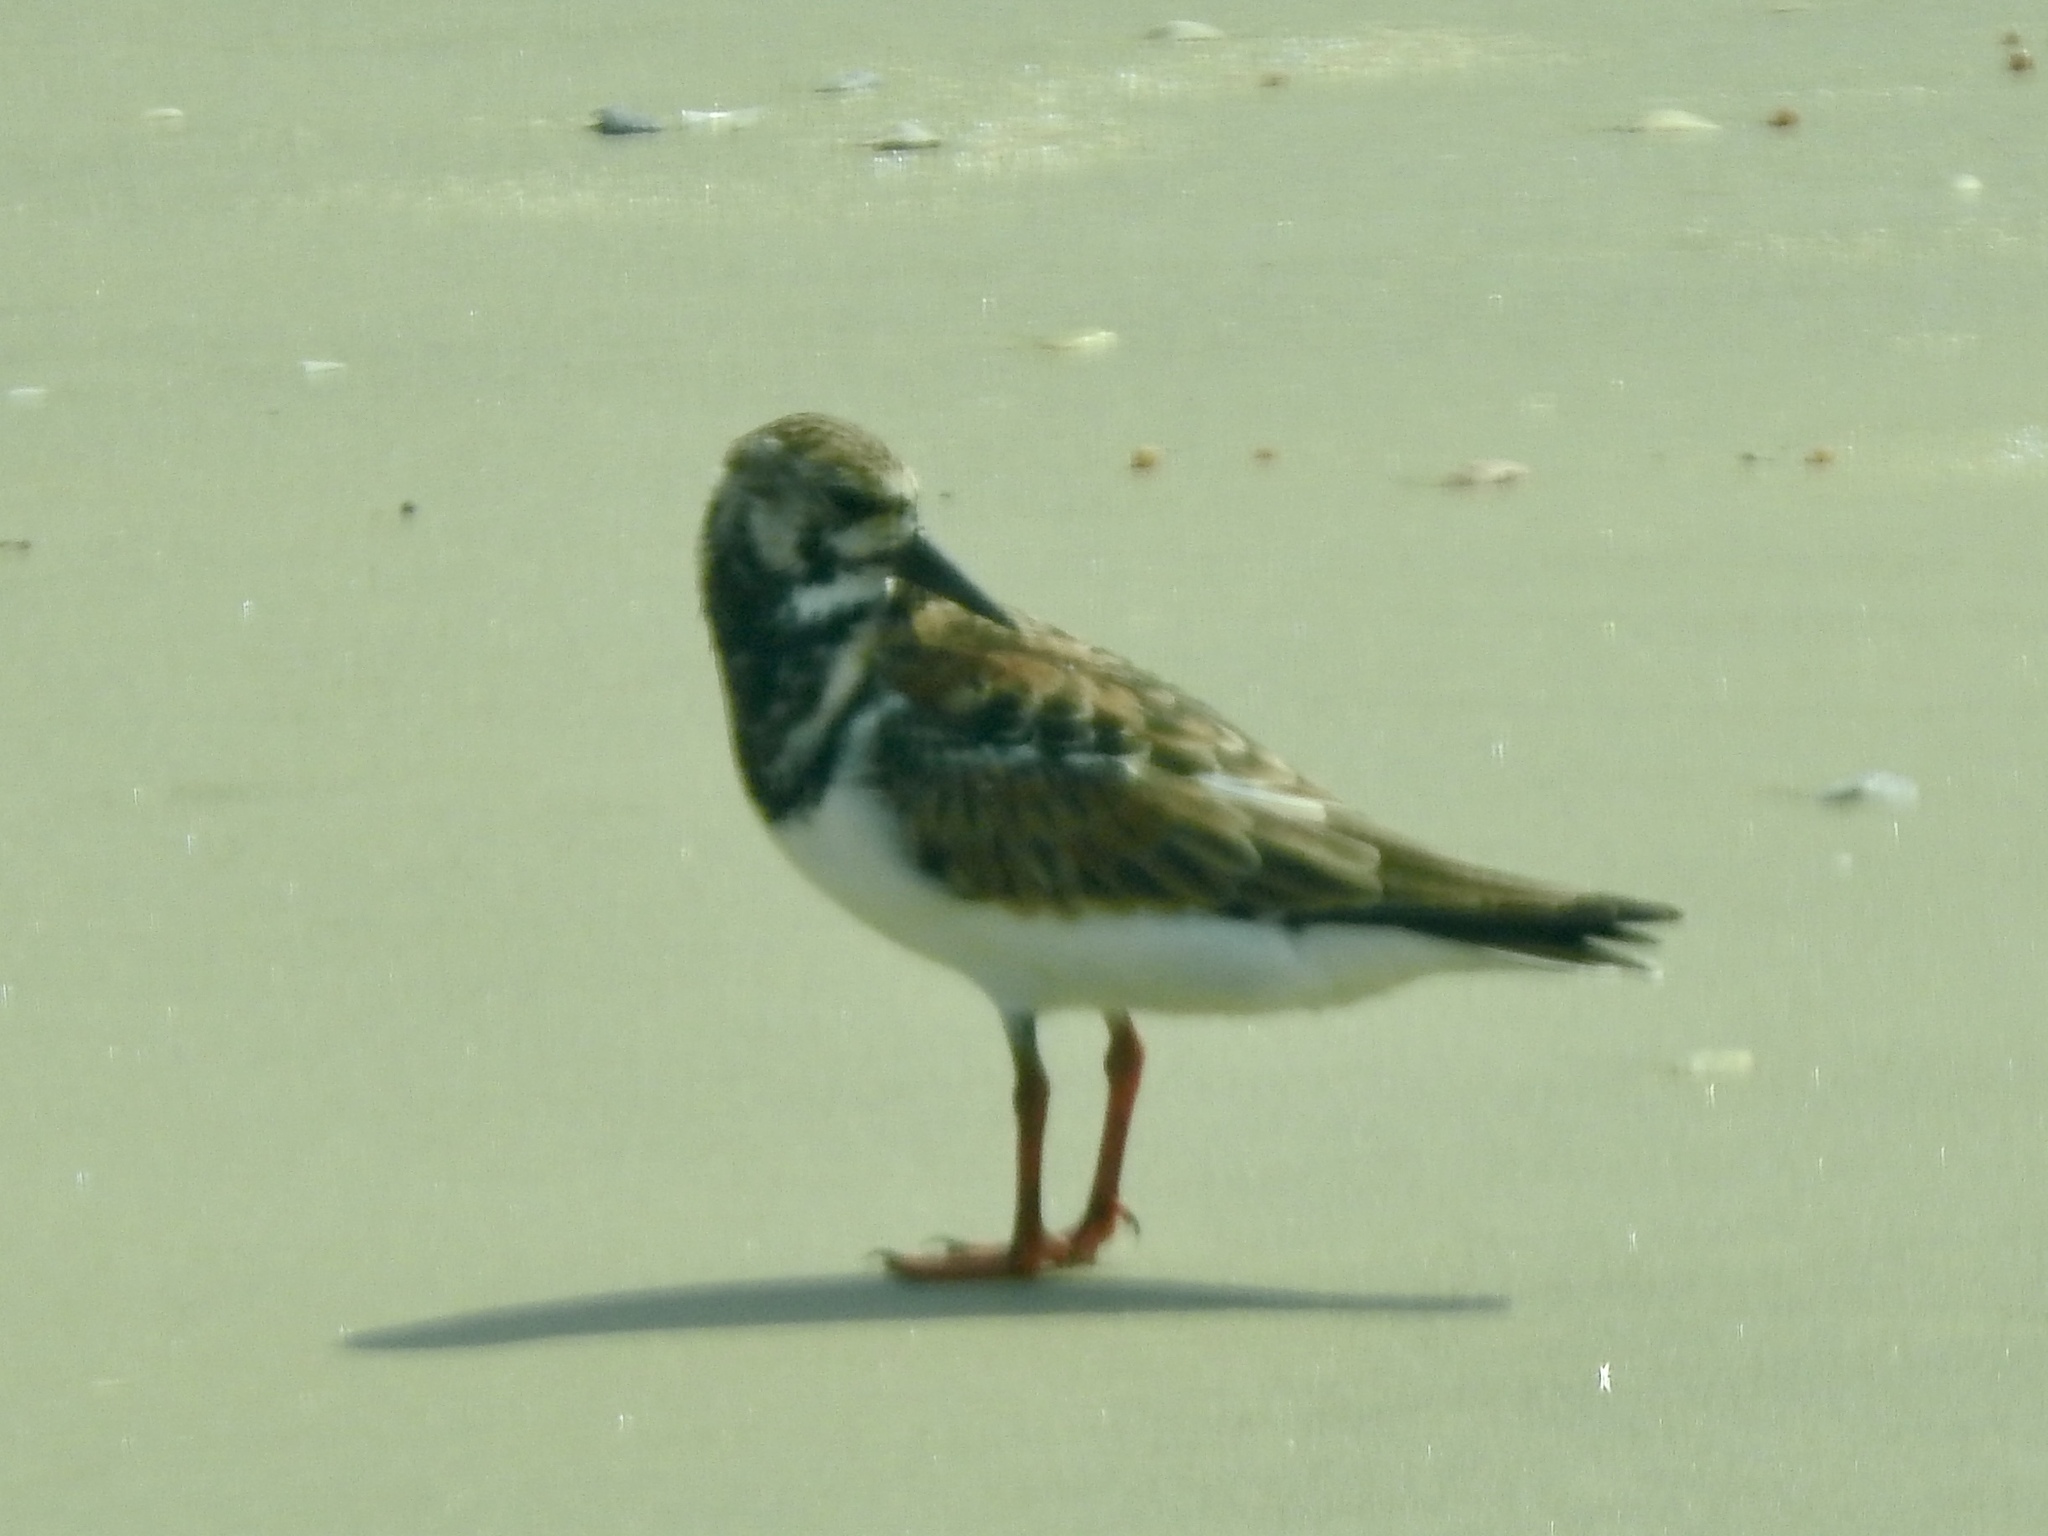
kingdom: Animalia
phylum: Chordata
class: Aves
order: Charadriiformes
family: Scolopacidae
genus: Arenaria
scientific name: Arenaria interpres
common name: Ruddy turnstone
